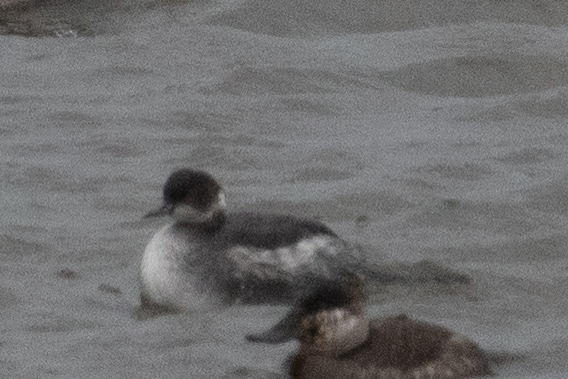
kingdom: Animalia
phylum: Chordata
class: Aves
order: Podicipediformes
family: Podicipedidae
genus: Podiceps
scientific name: Podiceps nigricollis
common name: Black-necked grebe
